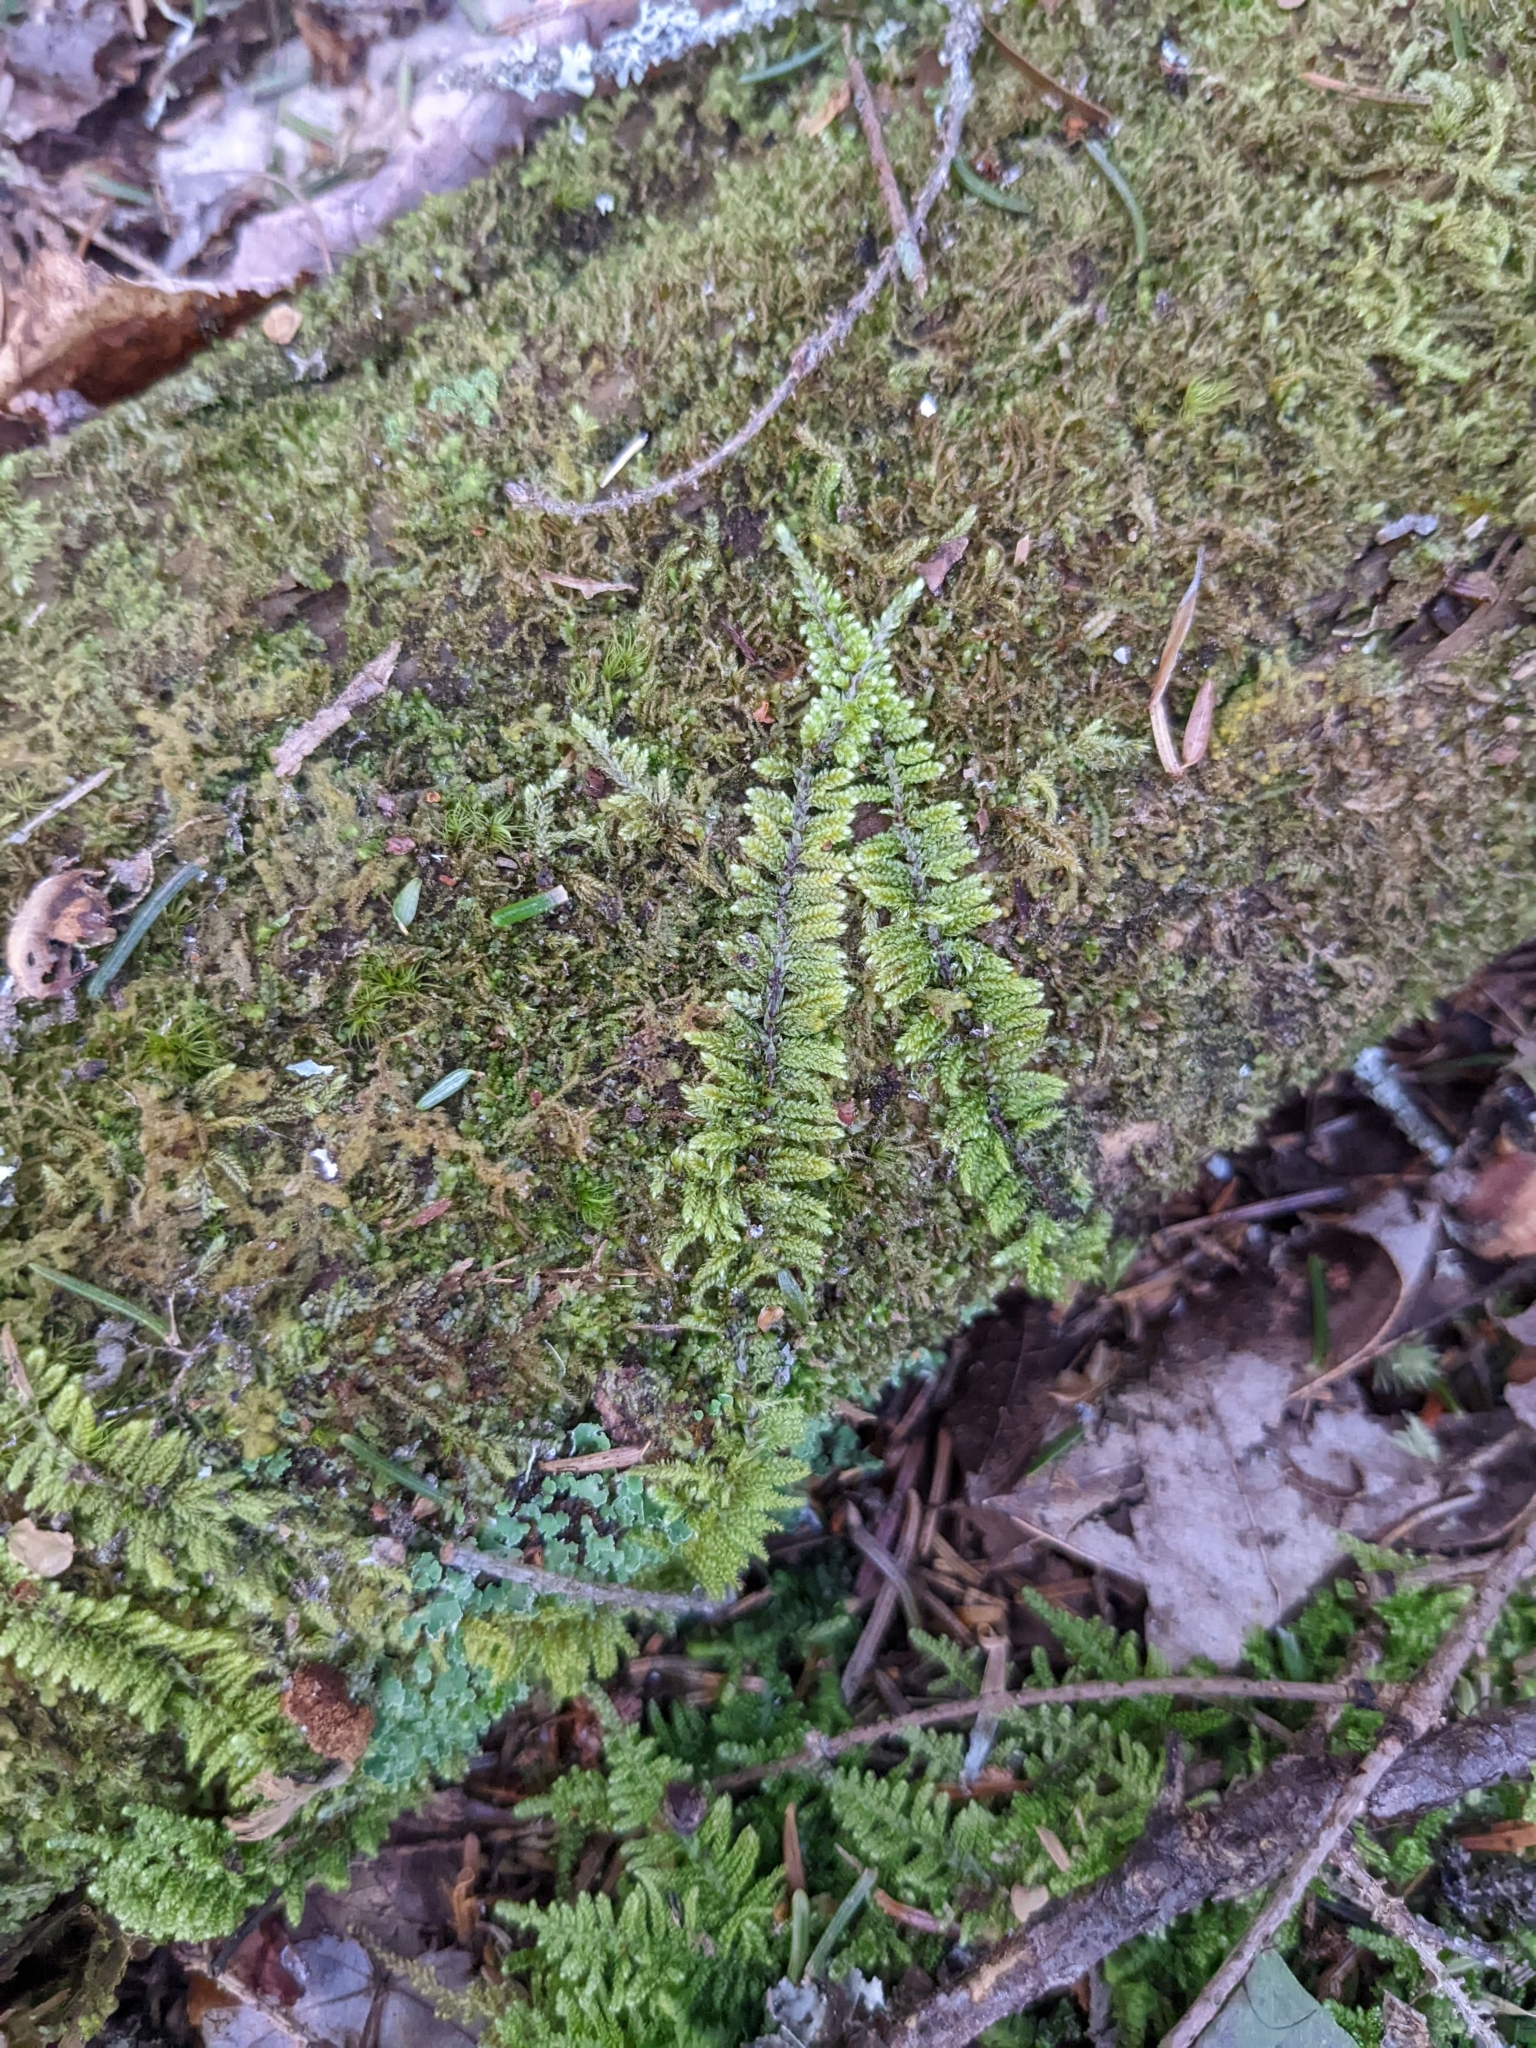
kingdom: Plantae
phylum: Bryophyta
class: Bryopsida
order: Hypnales
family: Callicladiaceae
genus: Callicladium
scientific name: Callicladium imponens
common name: Brocade moss
